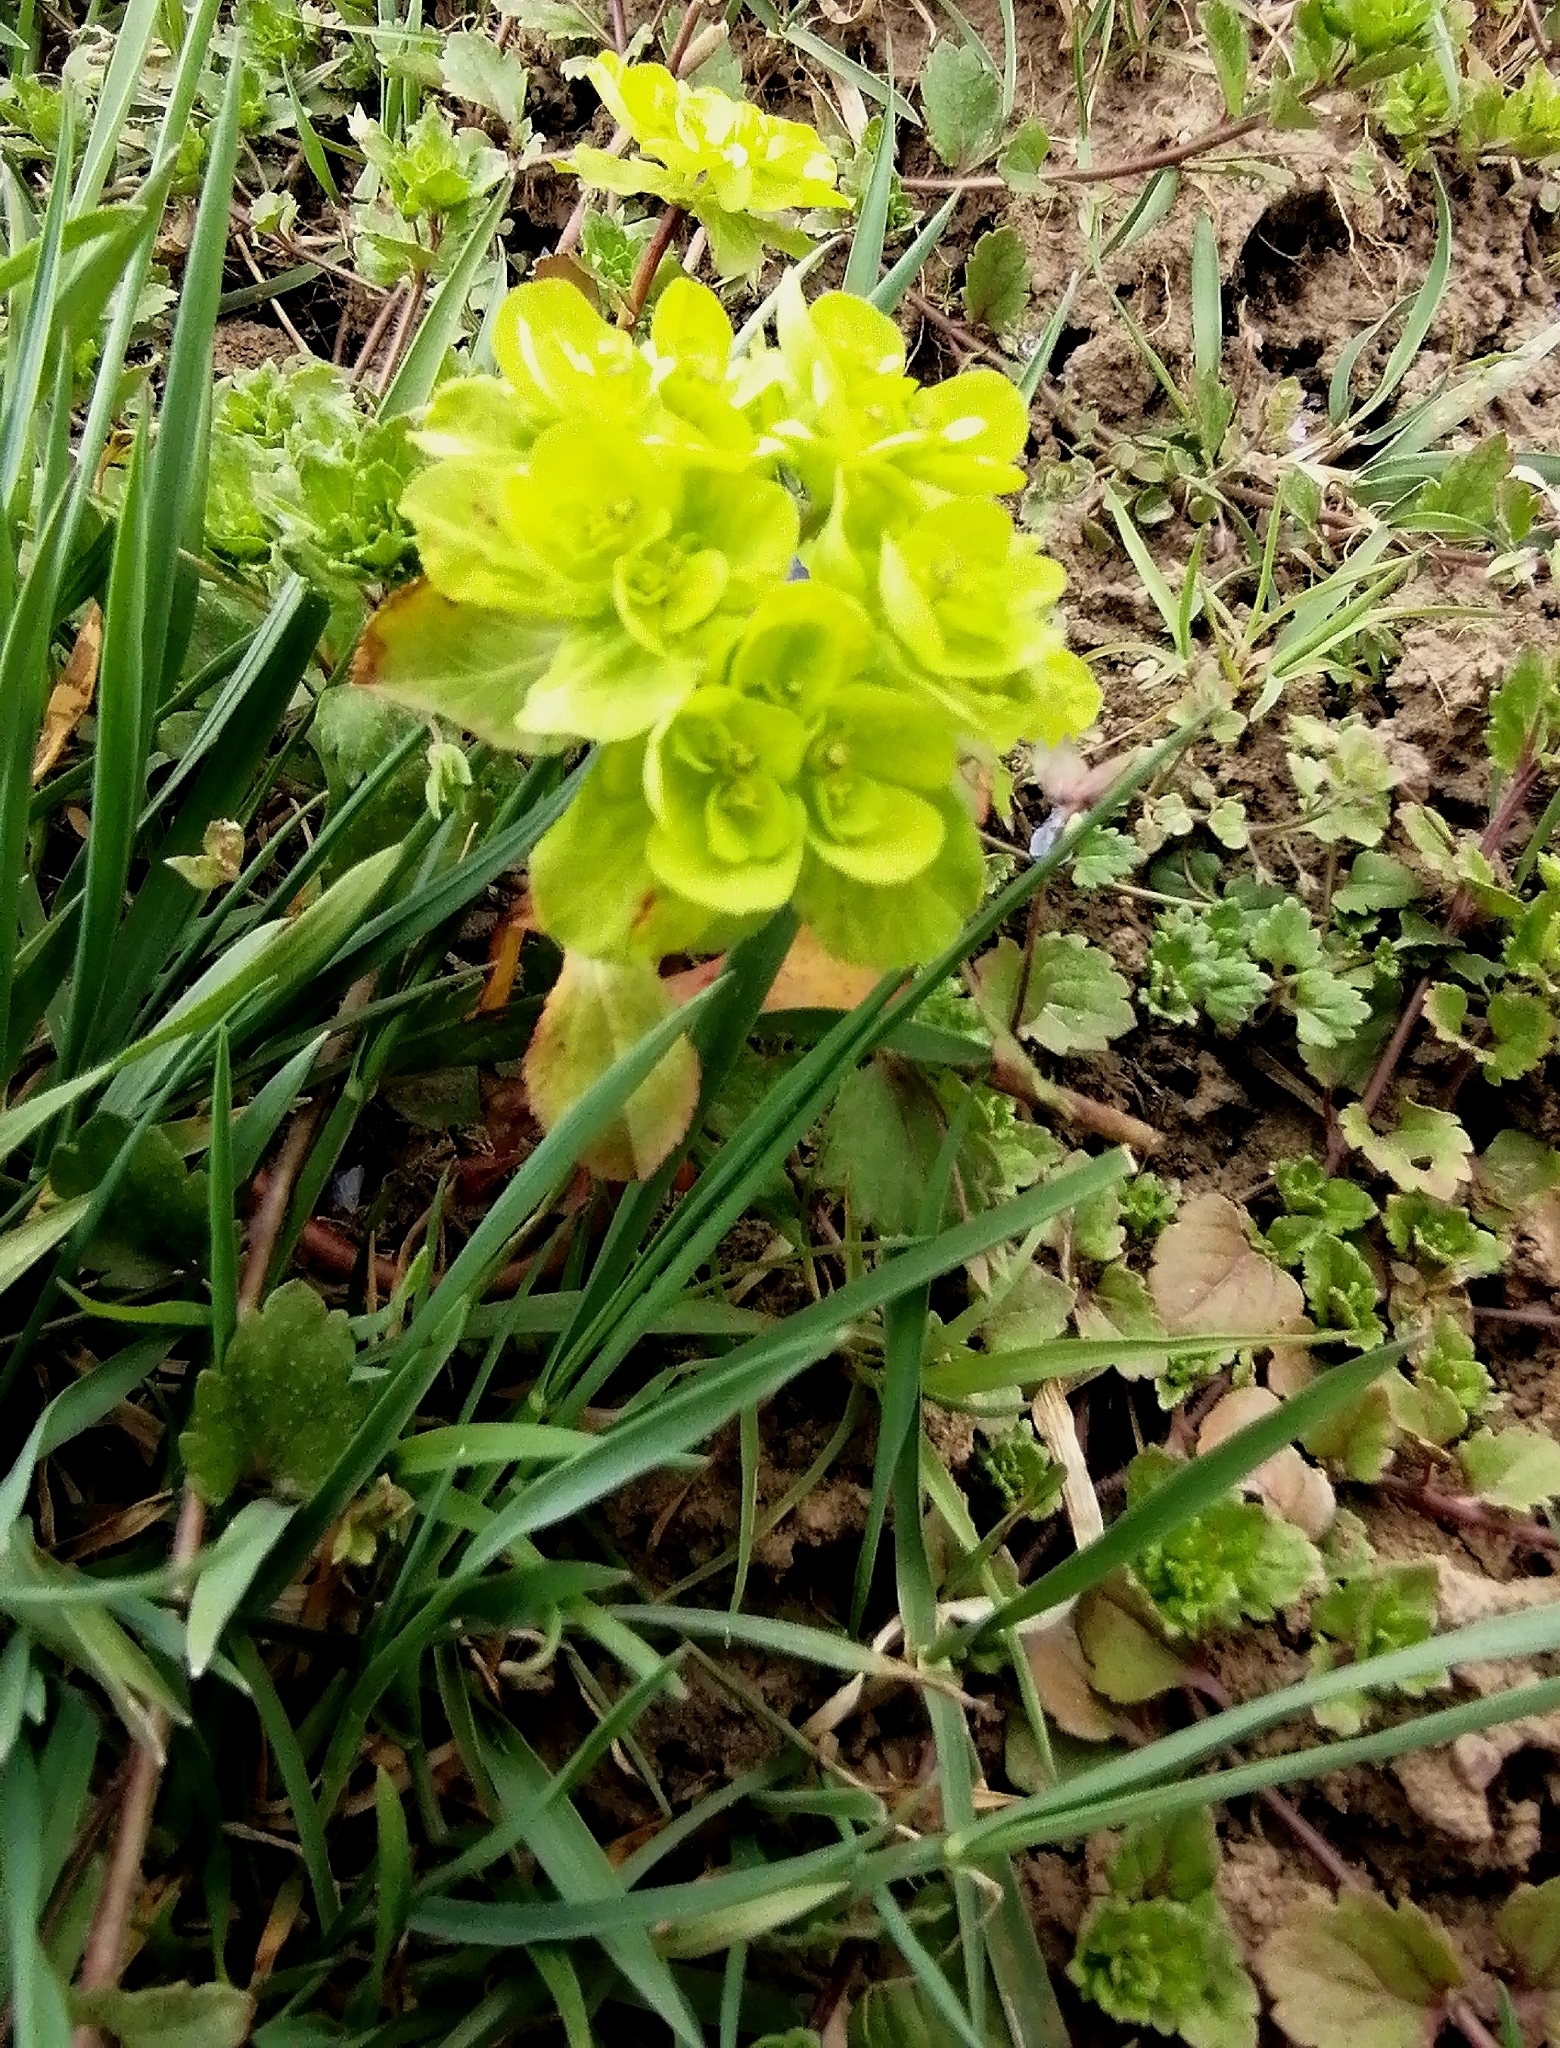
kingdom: Plantae
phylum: Tracheophyta
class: Magnoliopsida
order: Malpighiales
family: Euphorbiaceae
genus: Euphorbia
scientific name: Euphorbia helioscopia
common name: Sun spurge
